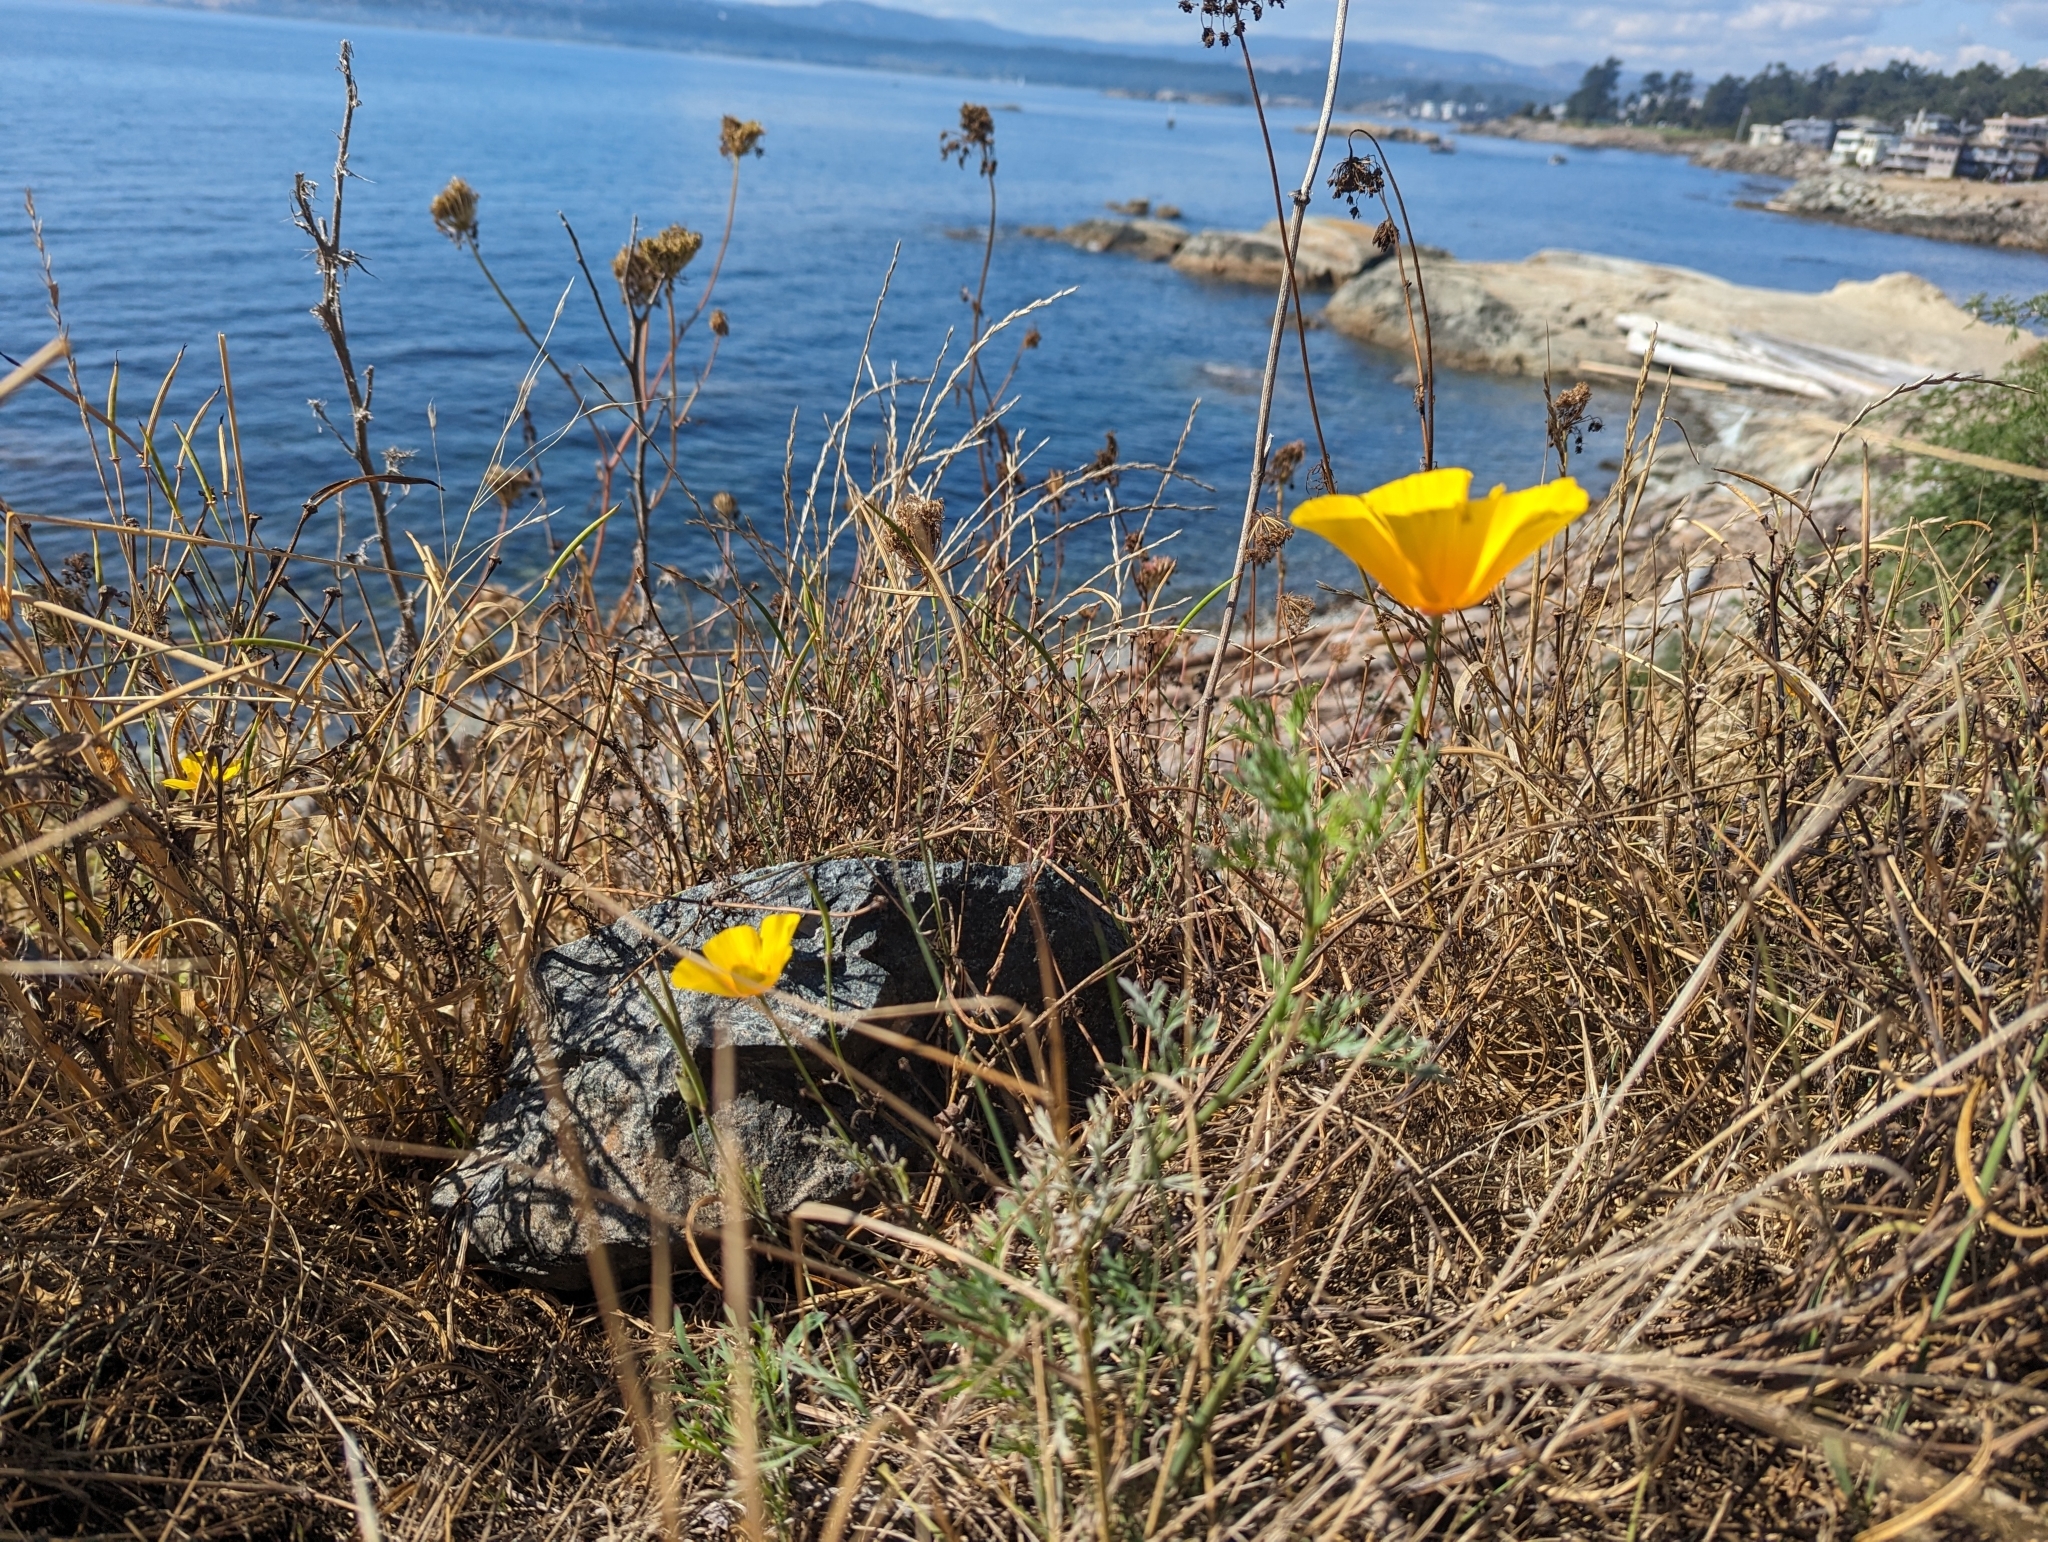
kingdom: Plantae
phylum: Tracheophyta
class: Magnoliopsida
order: Ranunculales
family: Papaveraceae
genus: Eschscholzia
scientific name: Eschscholzia californica
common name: California poppy
